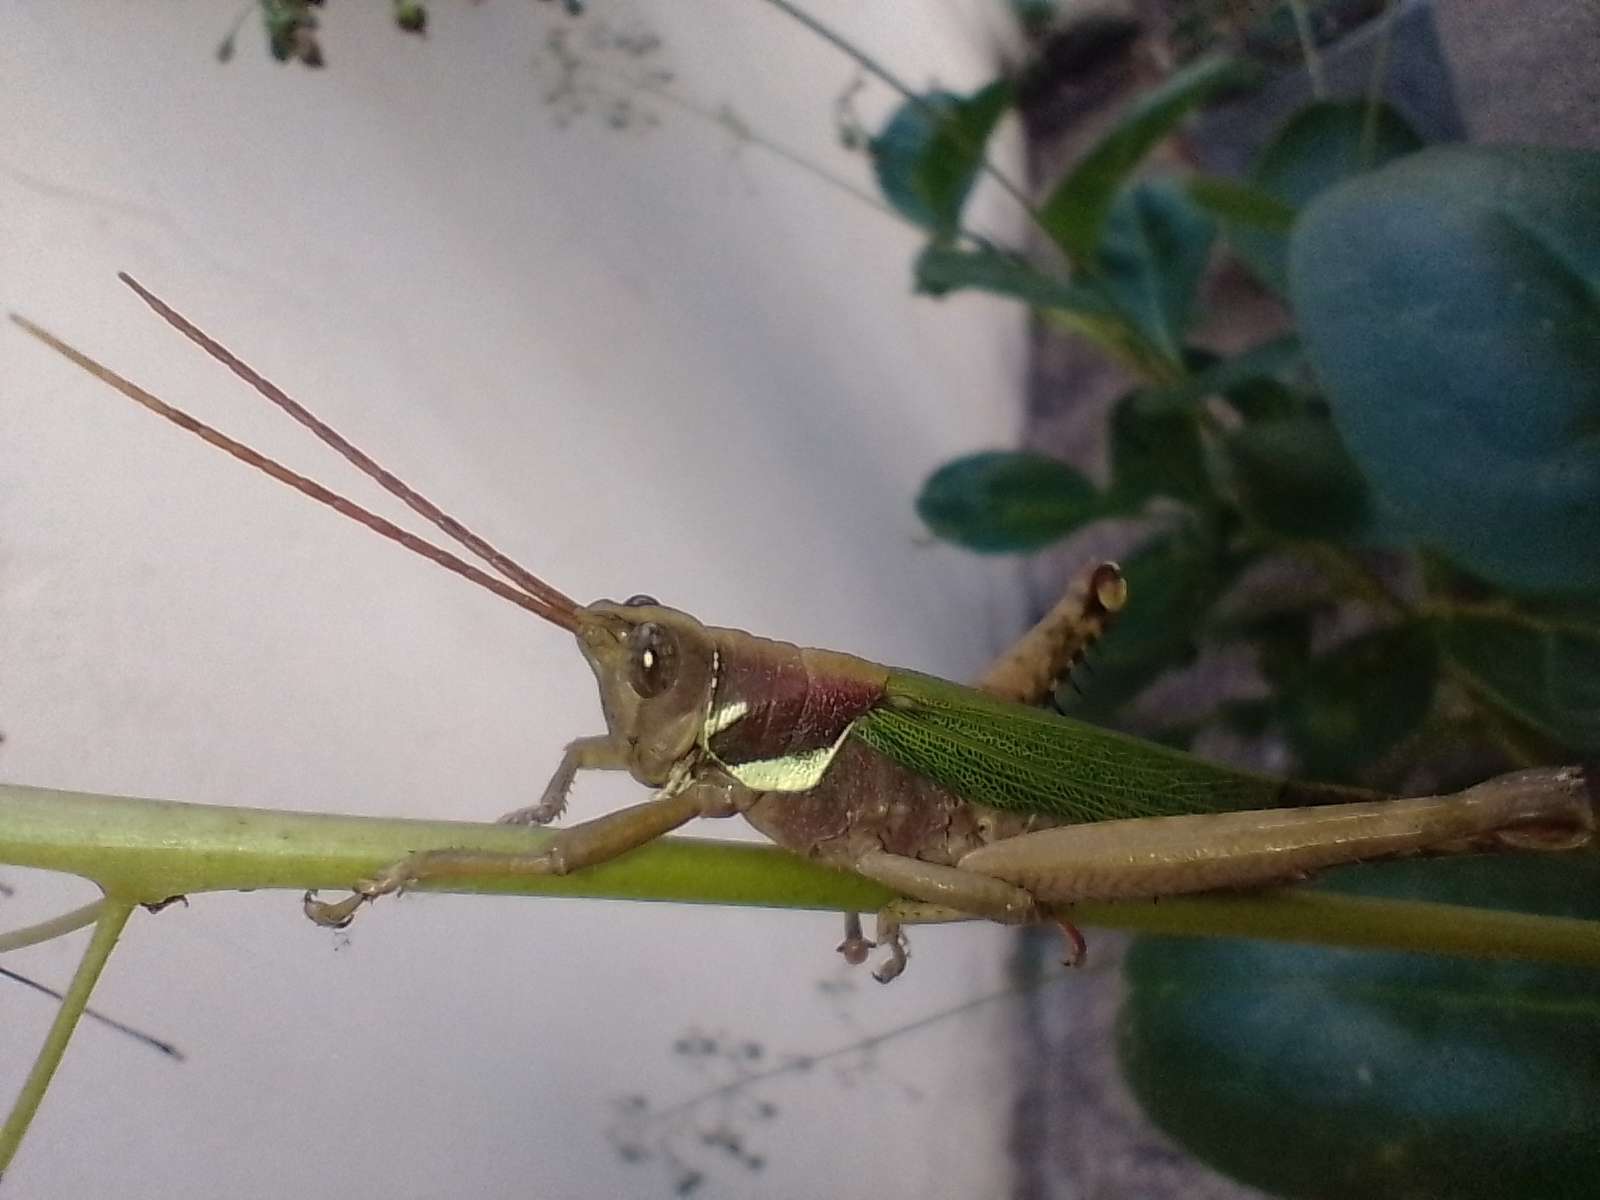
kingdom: Animalia
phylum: Arthropoda
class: Insecta
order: Orthoptera
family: Romaleidae
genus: Coryacris
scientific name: Coryacris angustipennis
